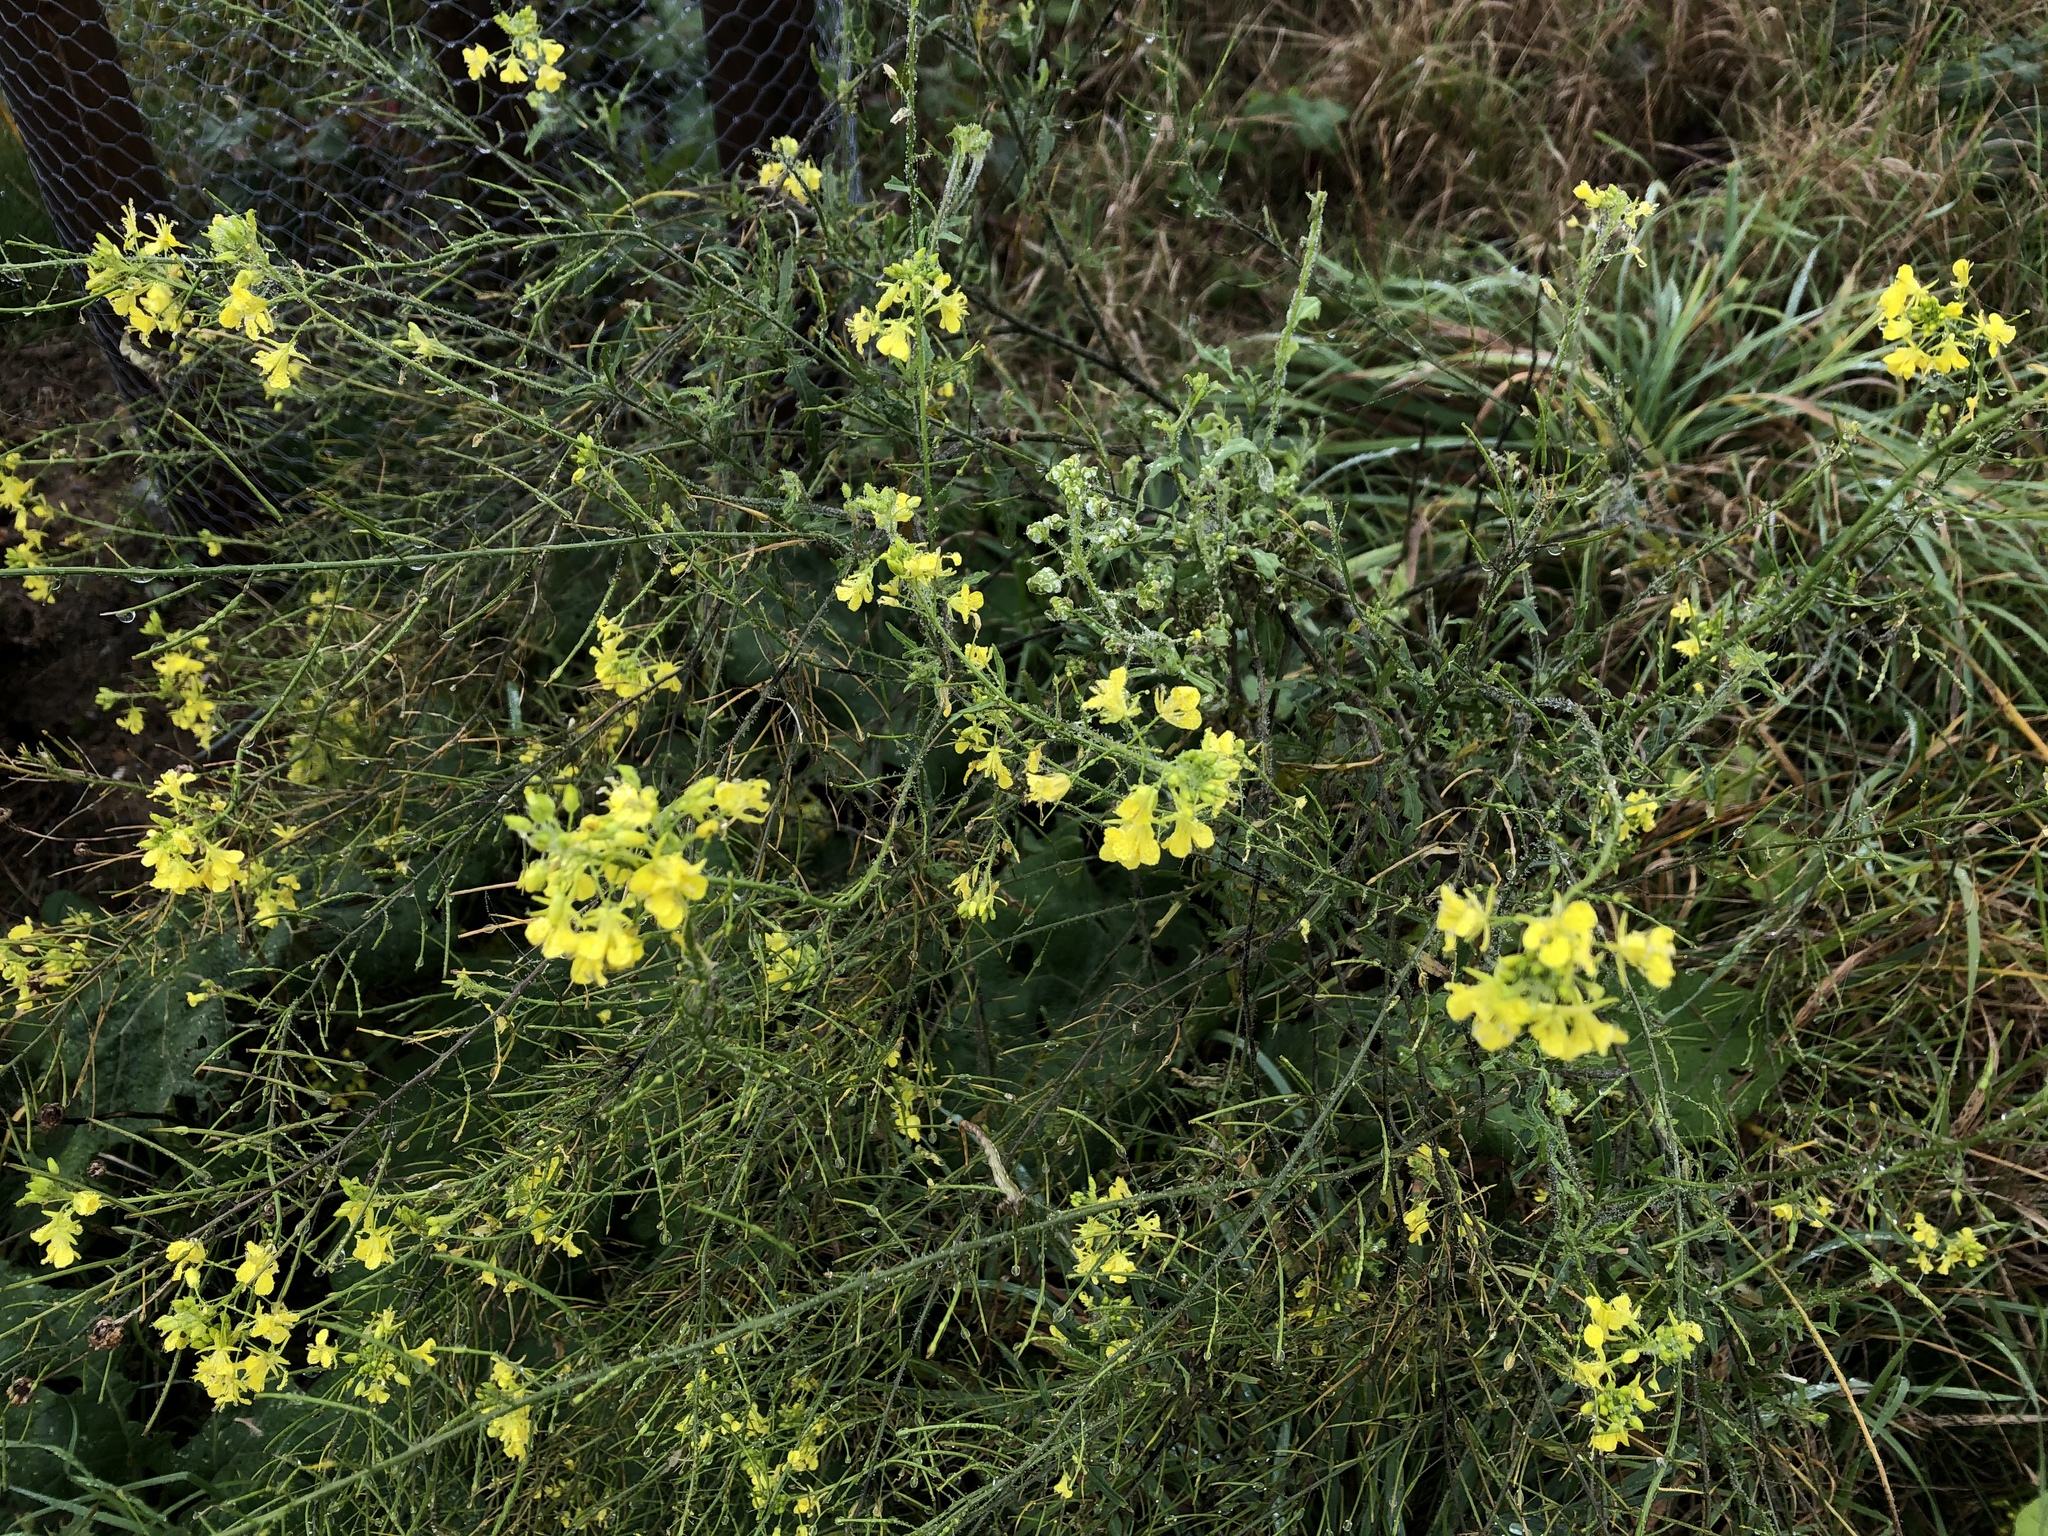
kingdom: Plantae
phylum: Tracheophyta
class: Magnoliopsida
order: Brassicales
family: Brassicaceae
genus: Sisymbrium
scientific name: Sisymbrium loeselii
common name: False london-rocket
